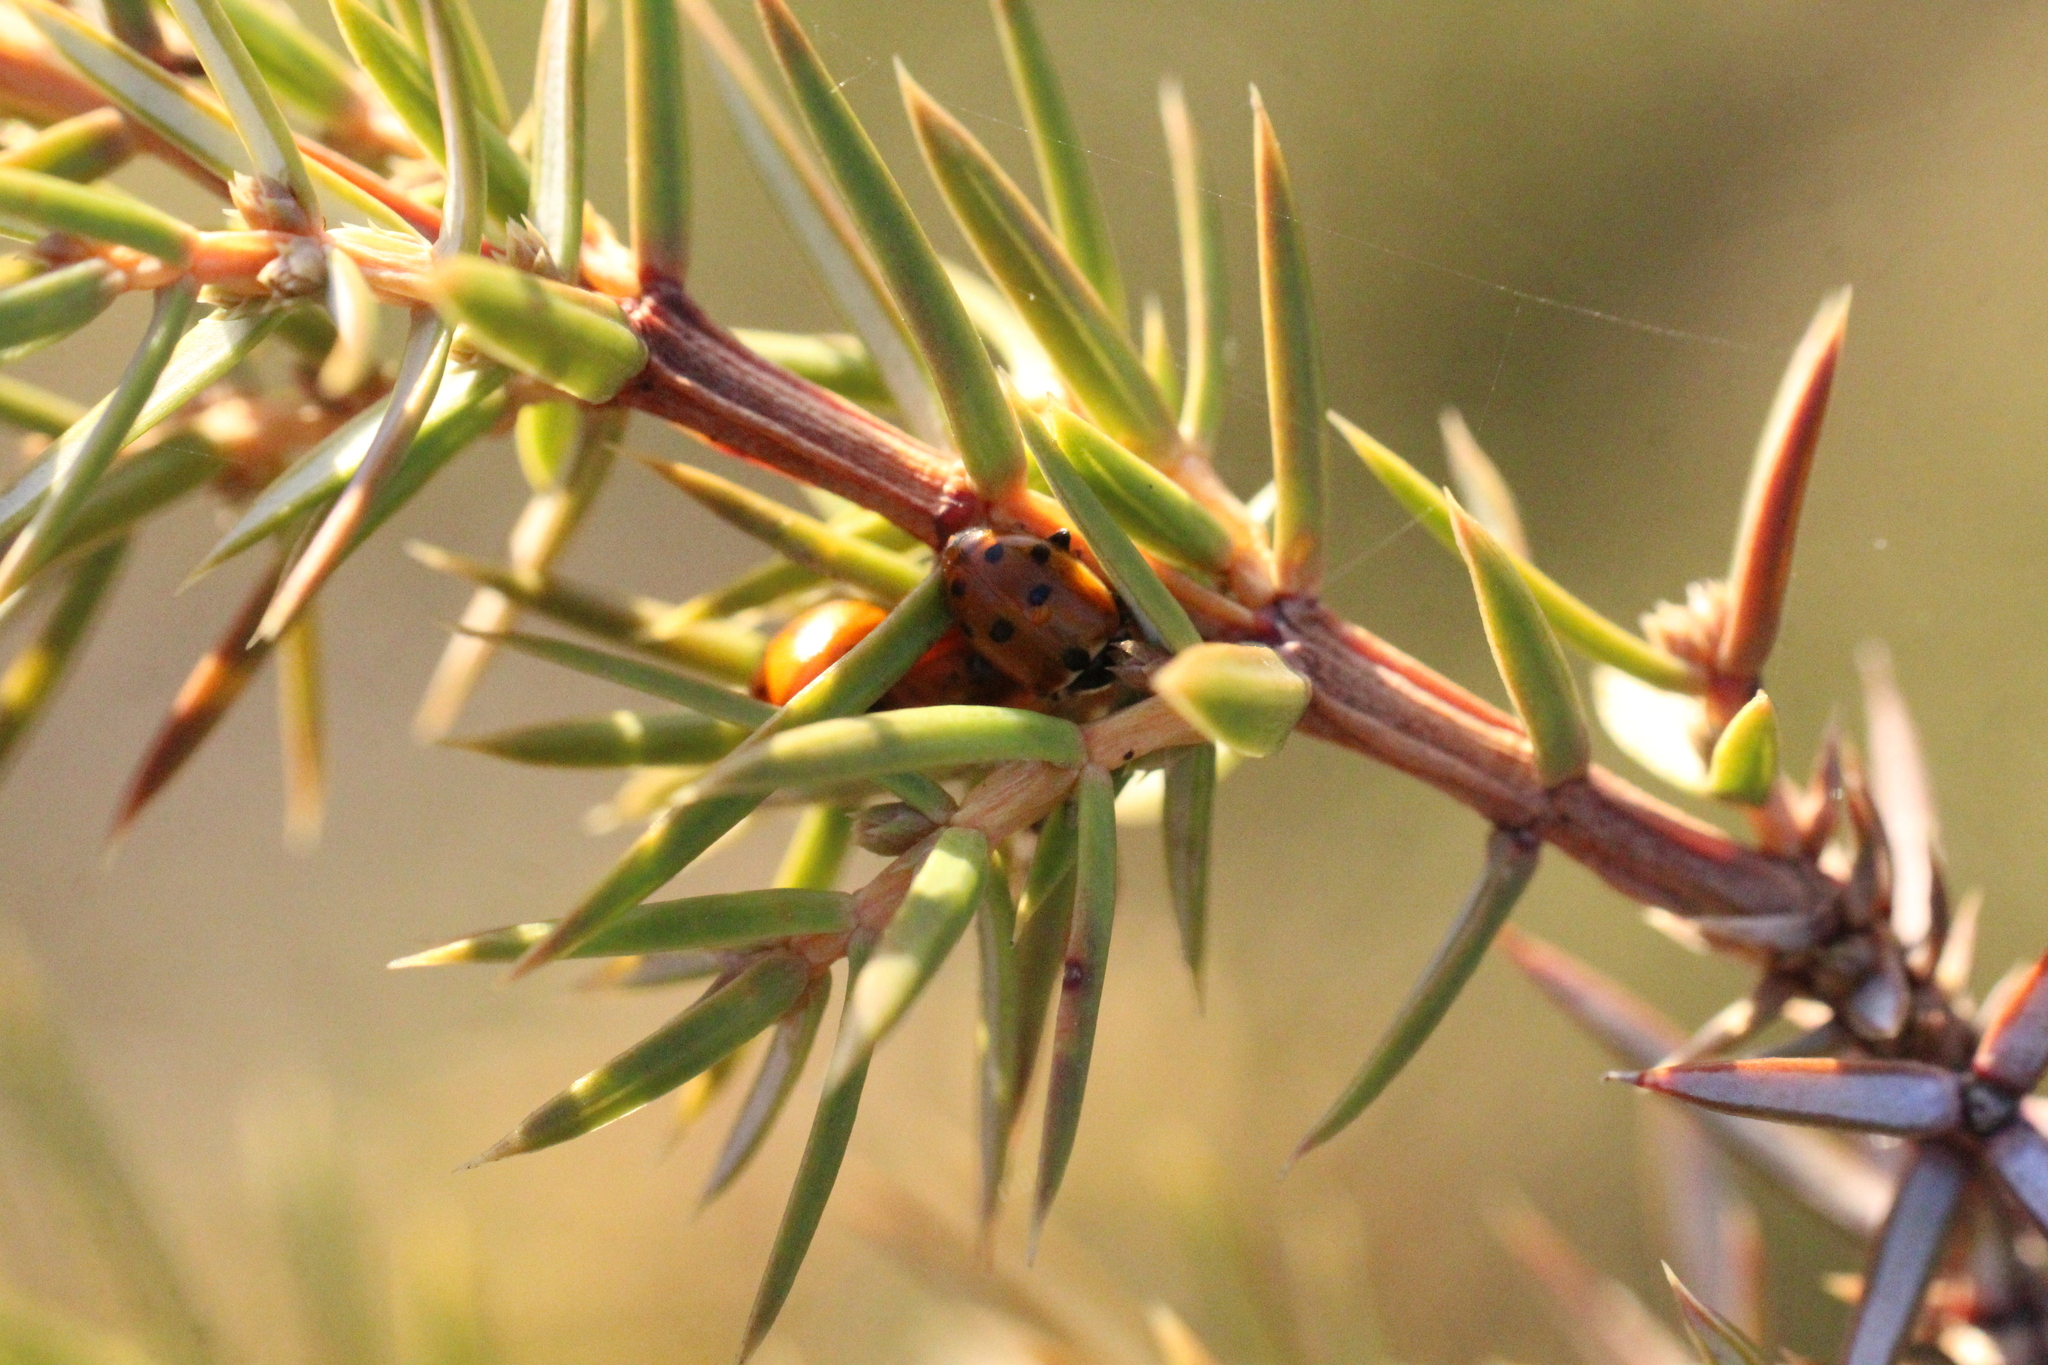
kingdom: Animalia
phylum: Arthropoda
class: Insecta
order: Coleoptera
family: Coccinellidae
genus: Hippodamia
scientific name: Hippodamia variegata
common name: Ladybird beetle
